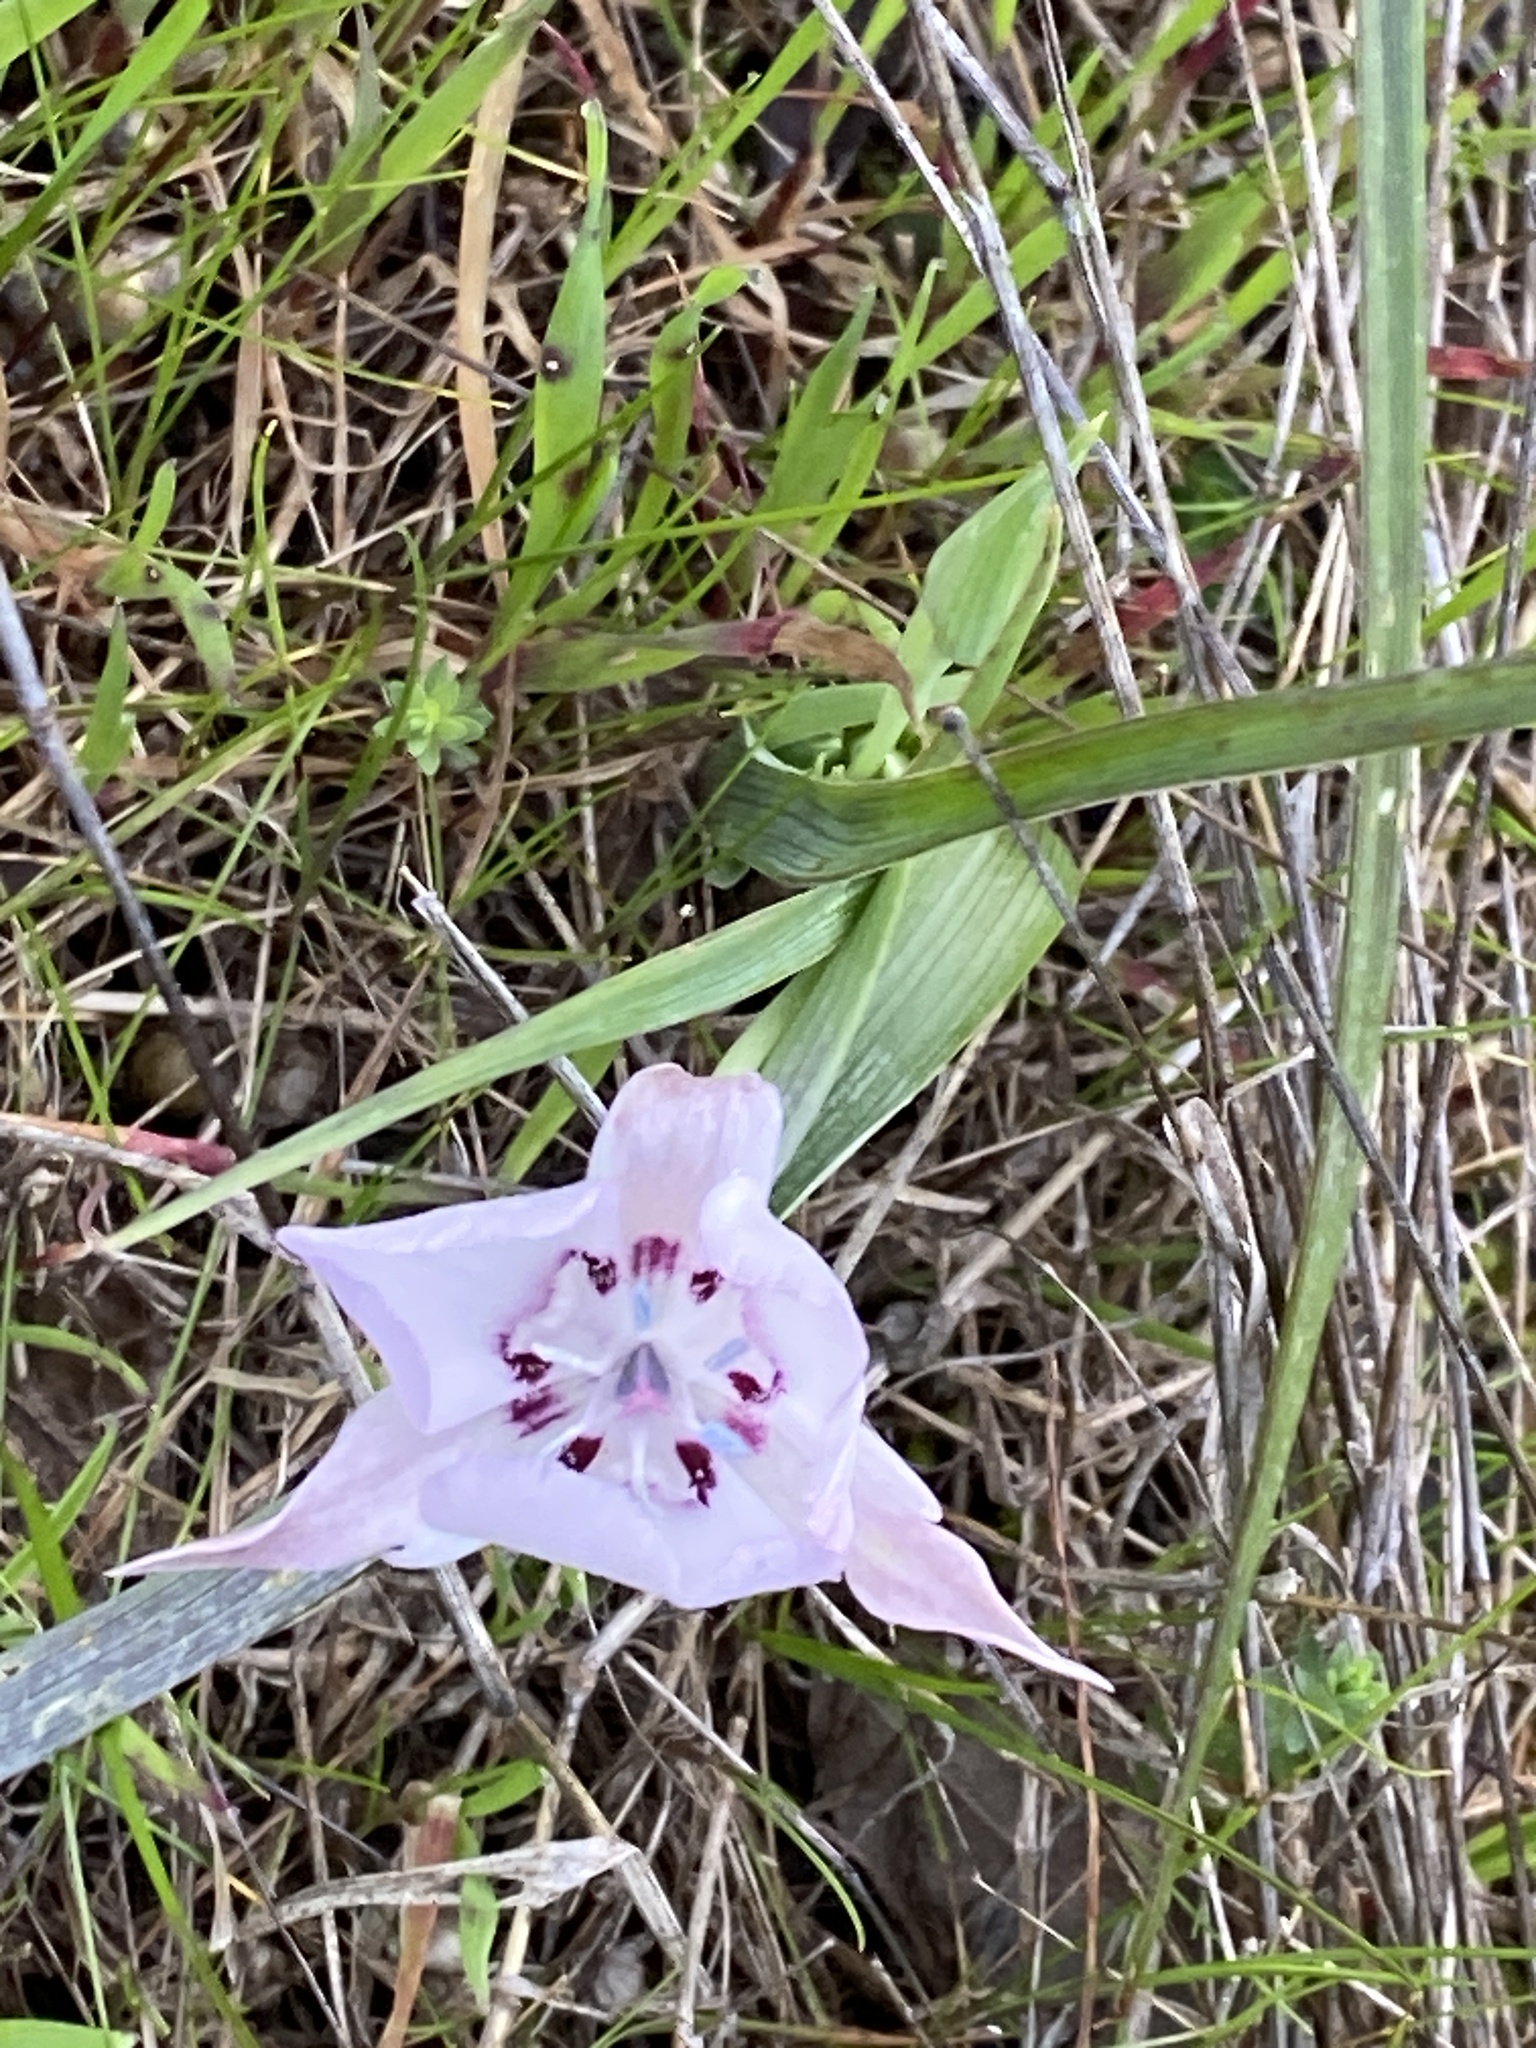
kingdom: Plantae
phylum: Tracheophyta
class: Liliopsida
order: Liliales
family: Liliaceae
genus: Calochortus
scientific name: Calochortus umbellatus
